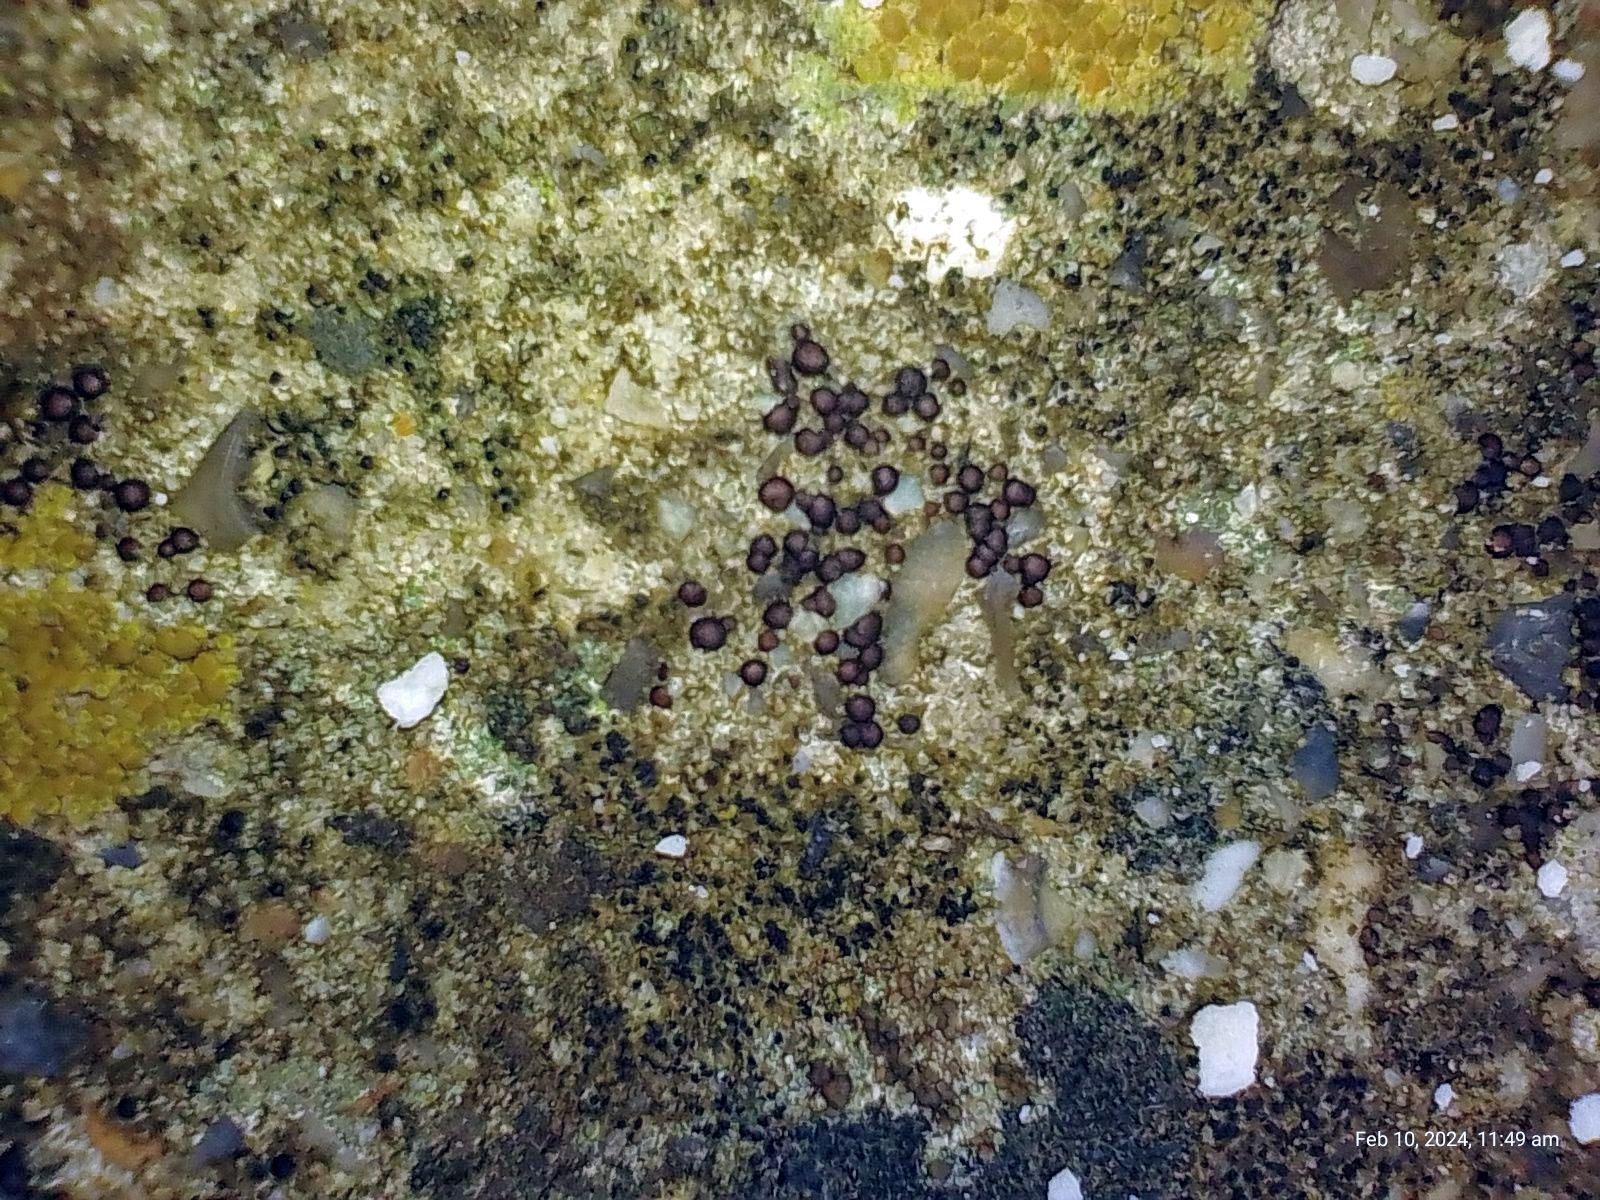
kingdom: Fungi
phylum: Ascomycota
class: Lecanoromycetes
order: Acarosporales
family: Acarosporaceae
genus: Sarcogyne
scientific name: Sarcogyne regularis
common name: Frosted grain-spored lichen
